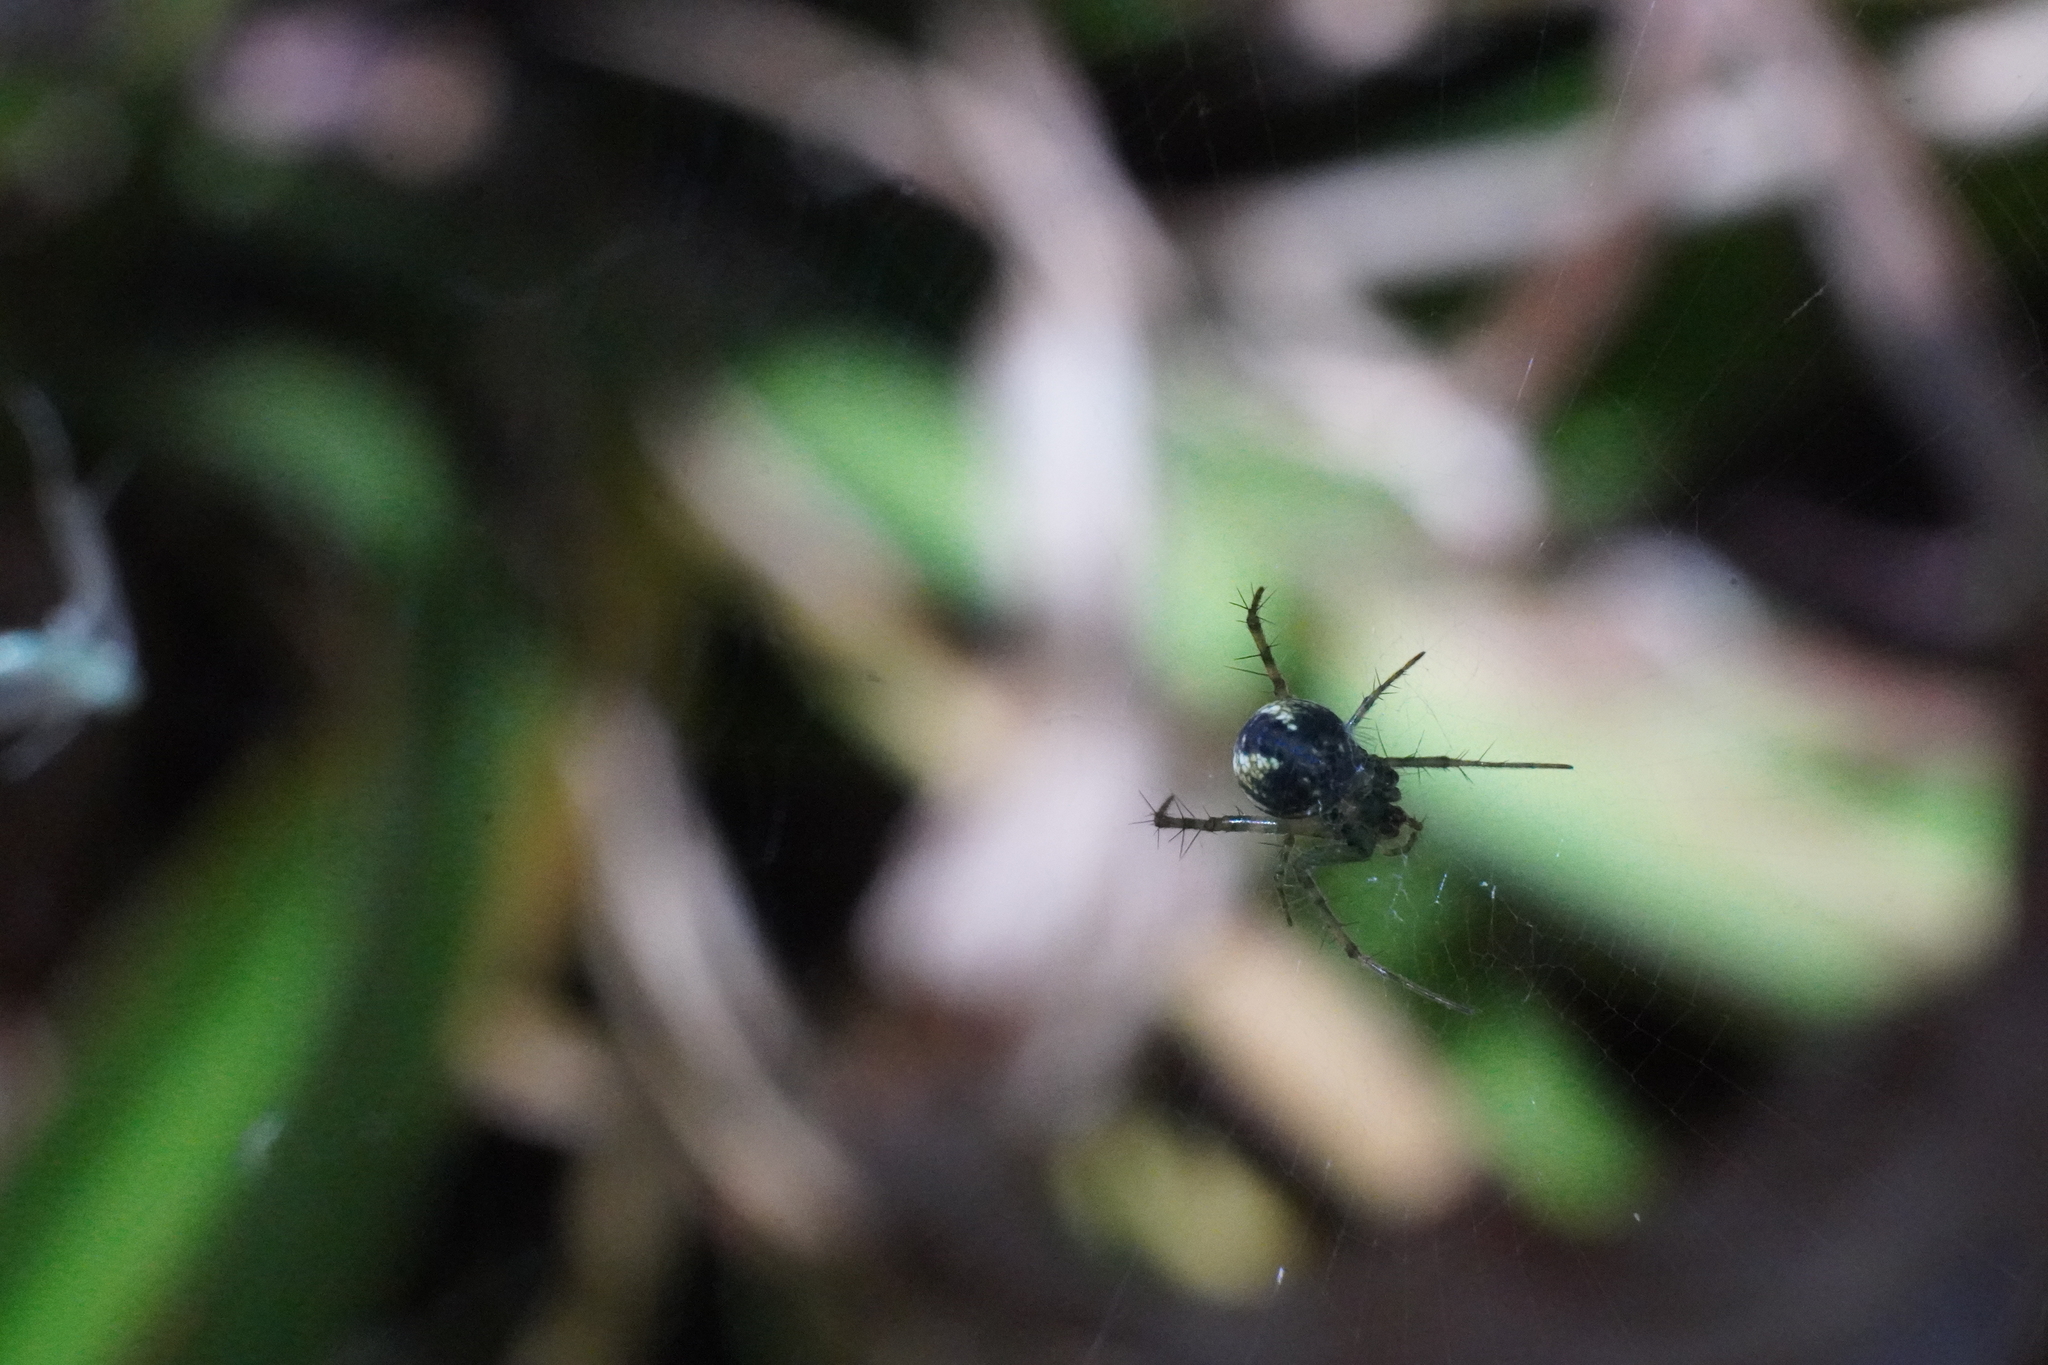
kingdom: Animalia
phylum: Arthropoda
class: Arachnida
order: Araneae
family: Araneidae
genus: Mangora
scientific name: Mangora maculata
